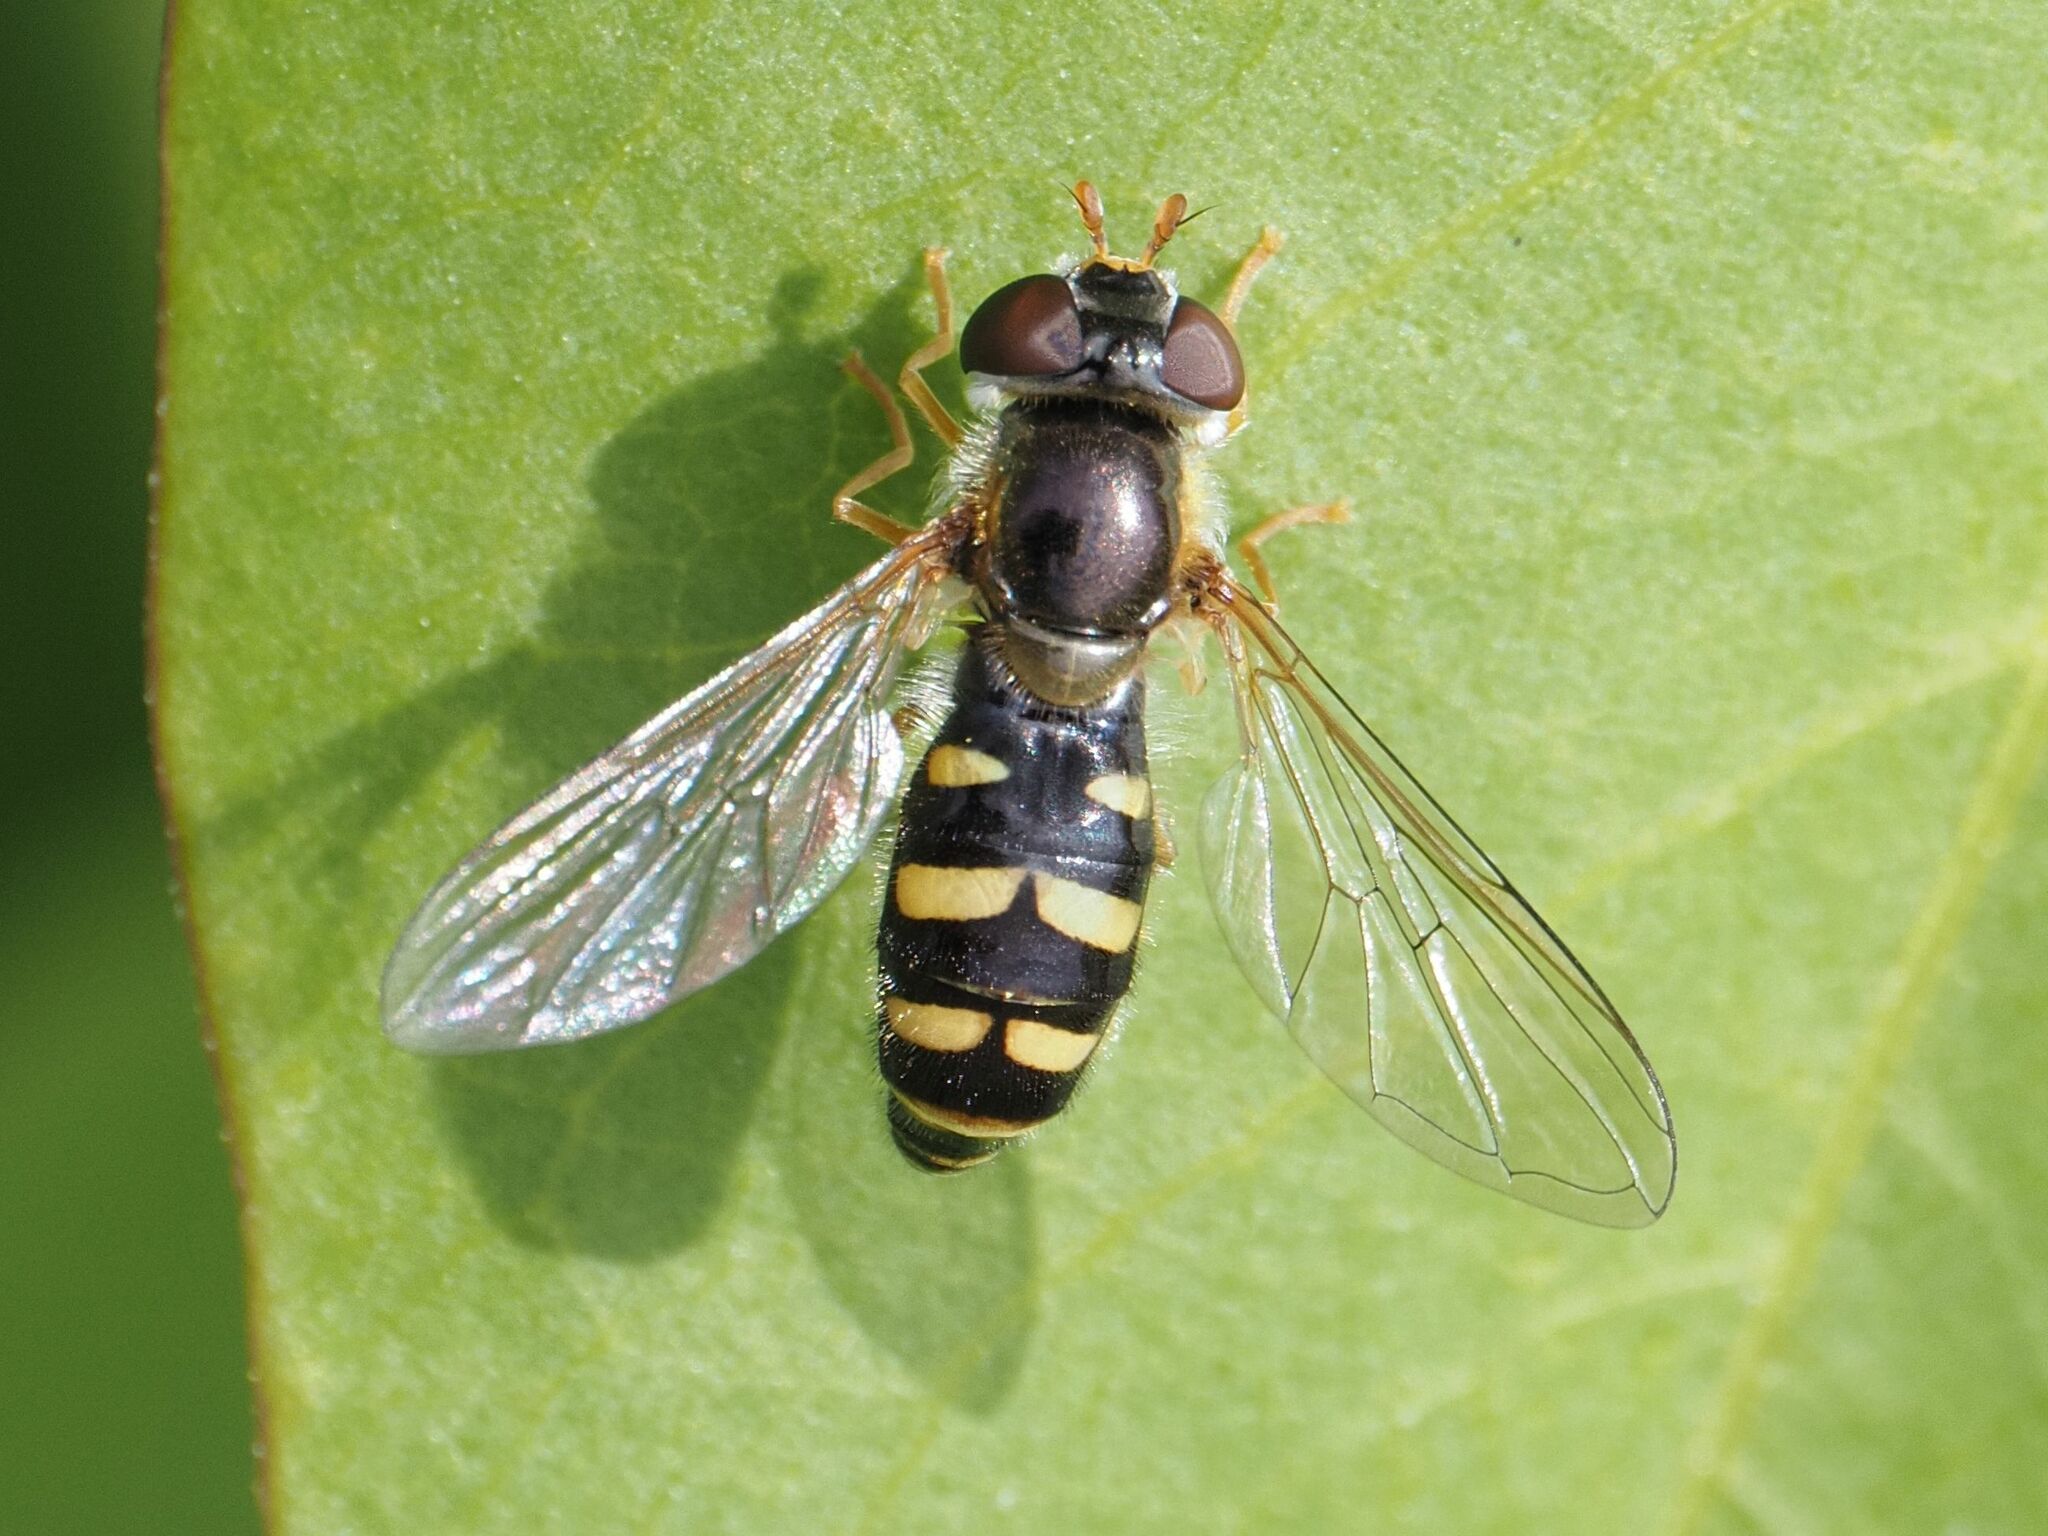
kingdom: Animalia
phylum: Arthropoda
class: Insecta
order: Diptera
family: Syrphidae
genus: Epistrophella
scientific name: Epistrophella euchromus
